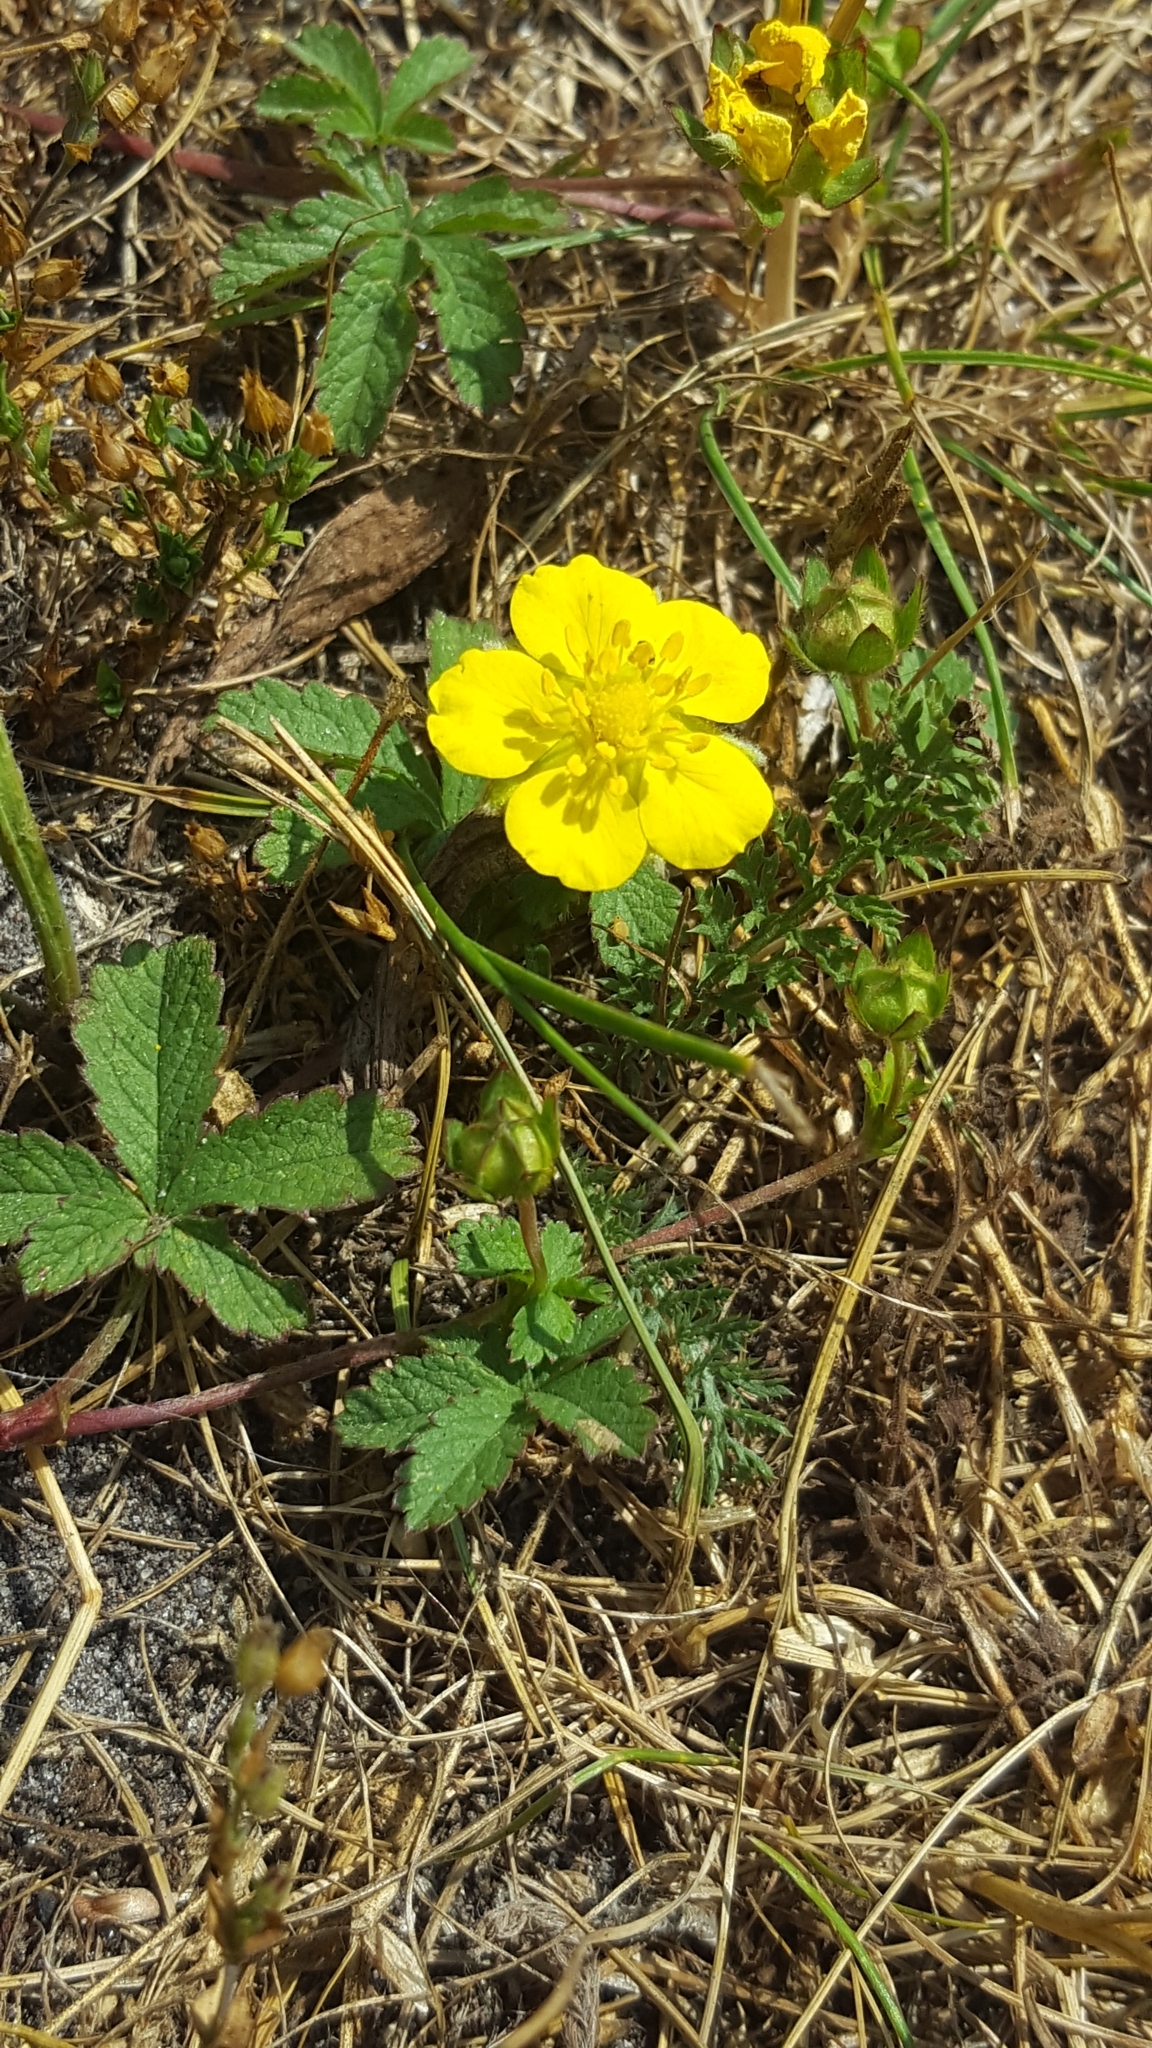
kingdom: Plantae
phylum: Tracheophyta
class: Magnoliopsida
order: Rosales
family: Rosaceae
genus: Potentilla
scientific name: Potentilla reptans
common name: Creeping cinquefoil
